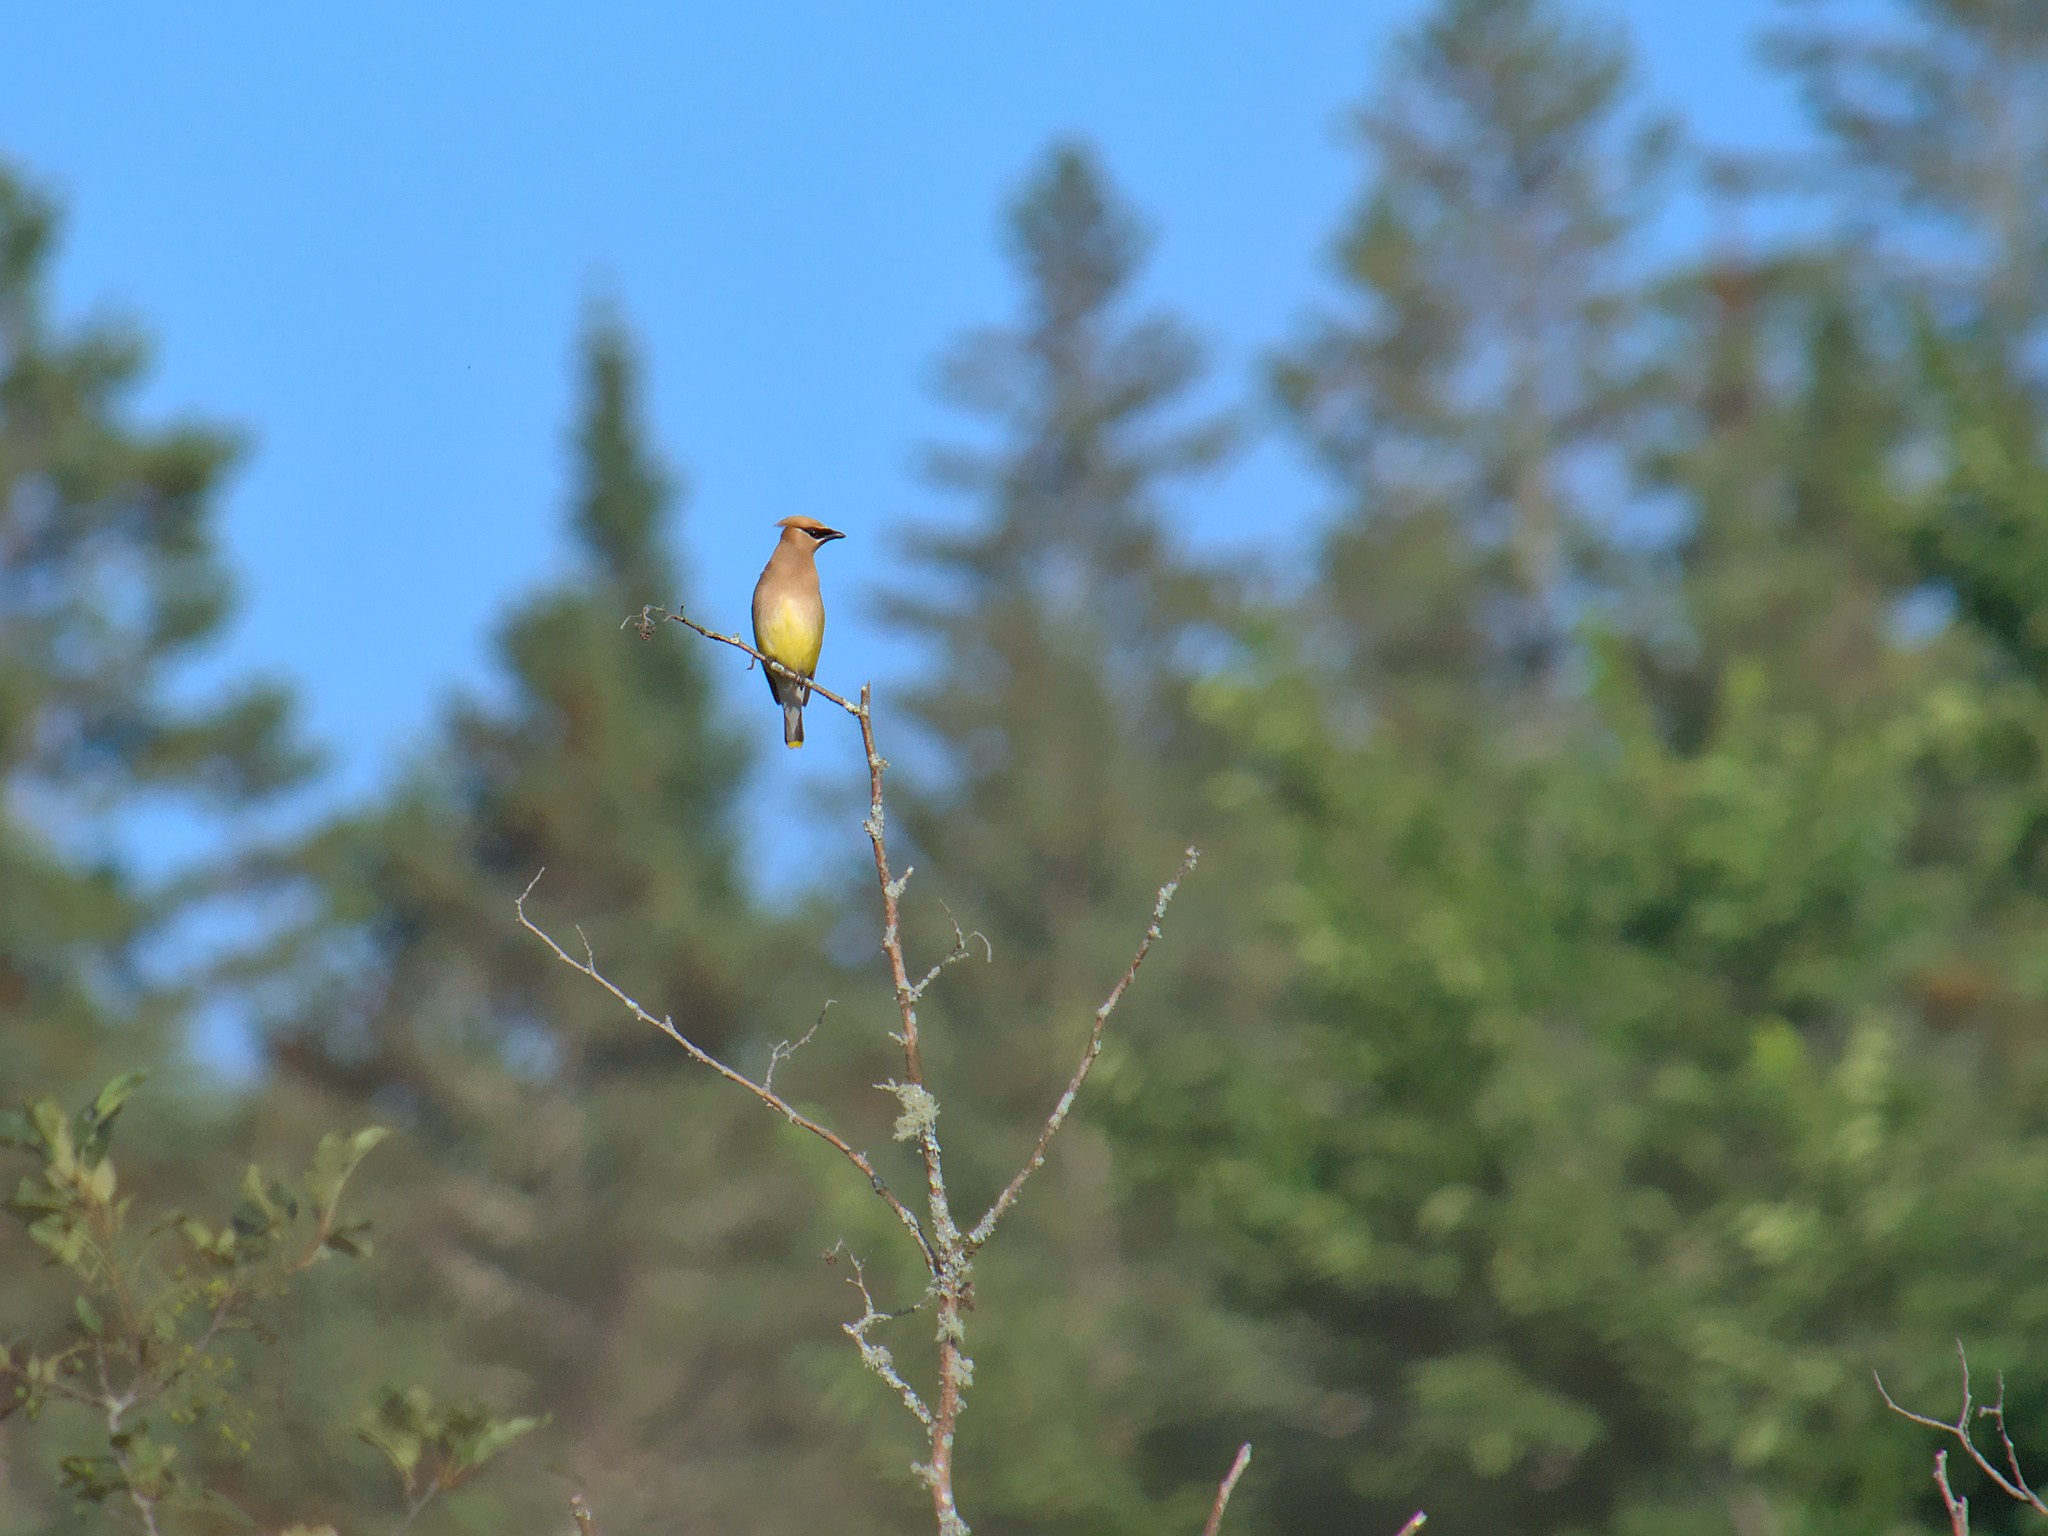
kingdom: Animalia
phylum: Chordata
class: Aves
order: Passeriformes
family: Bombycillidae
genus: Bombycilla
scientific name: Bombycilla cedrorum
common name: Cedar waxwing
